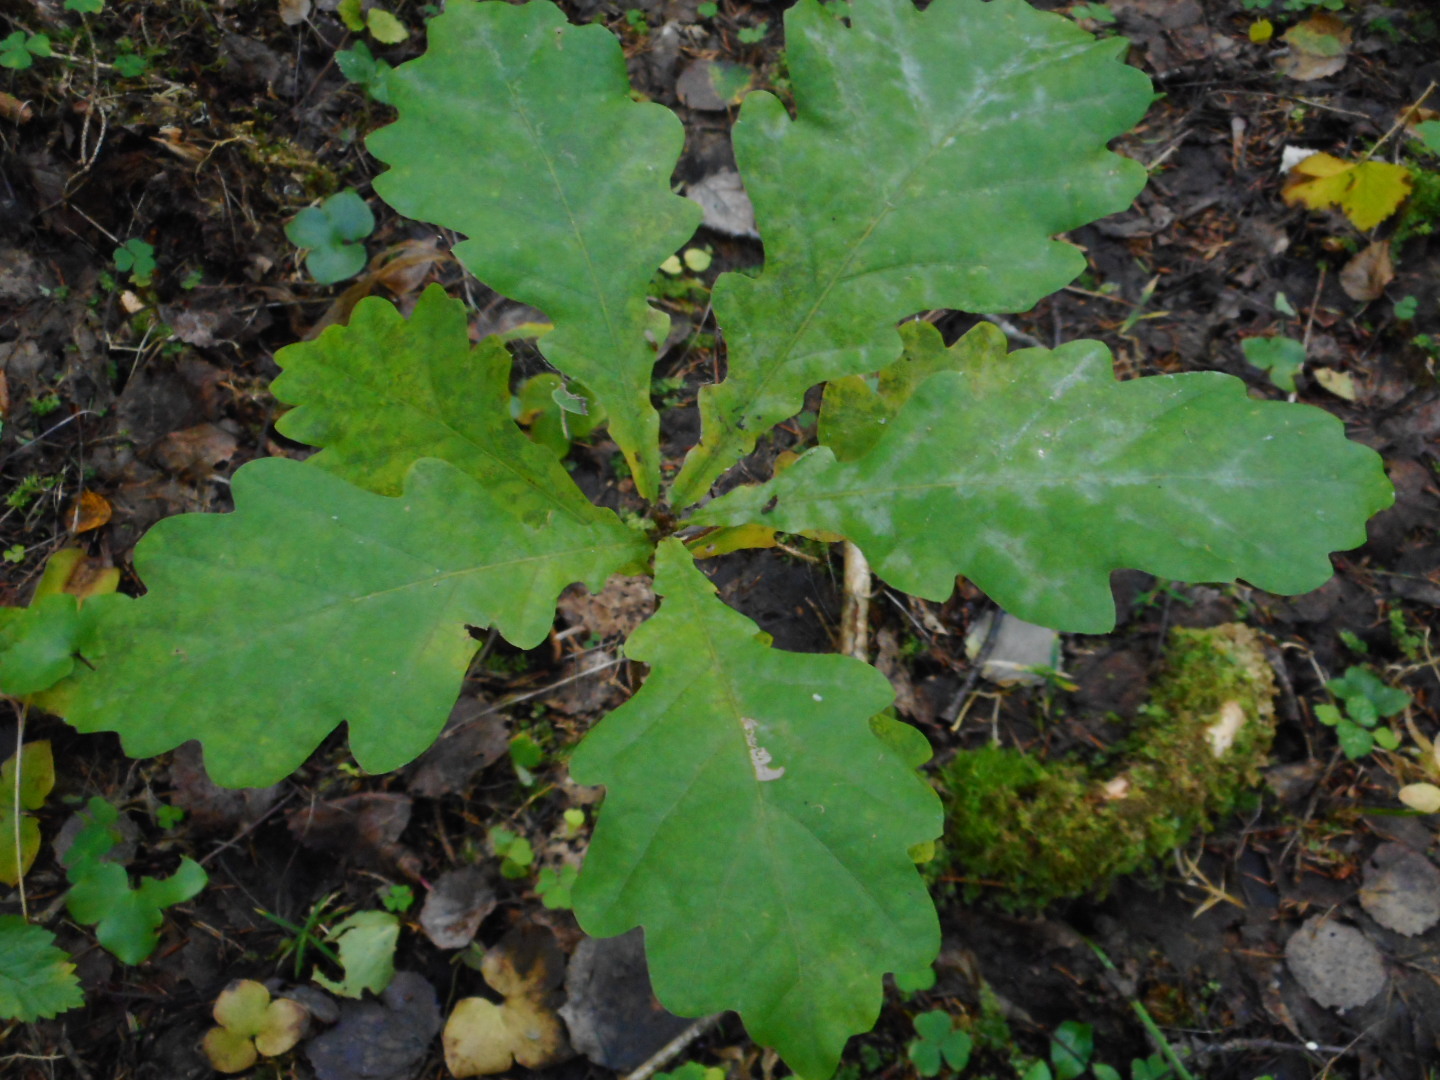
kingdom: Plantae
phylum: Tracheophyta
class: Magnoliopsida
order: Fagales
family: Fagaceae
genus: Quercus
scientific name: Quercus robur
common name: Pedunculate oak
